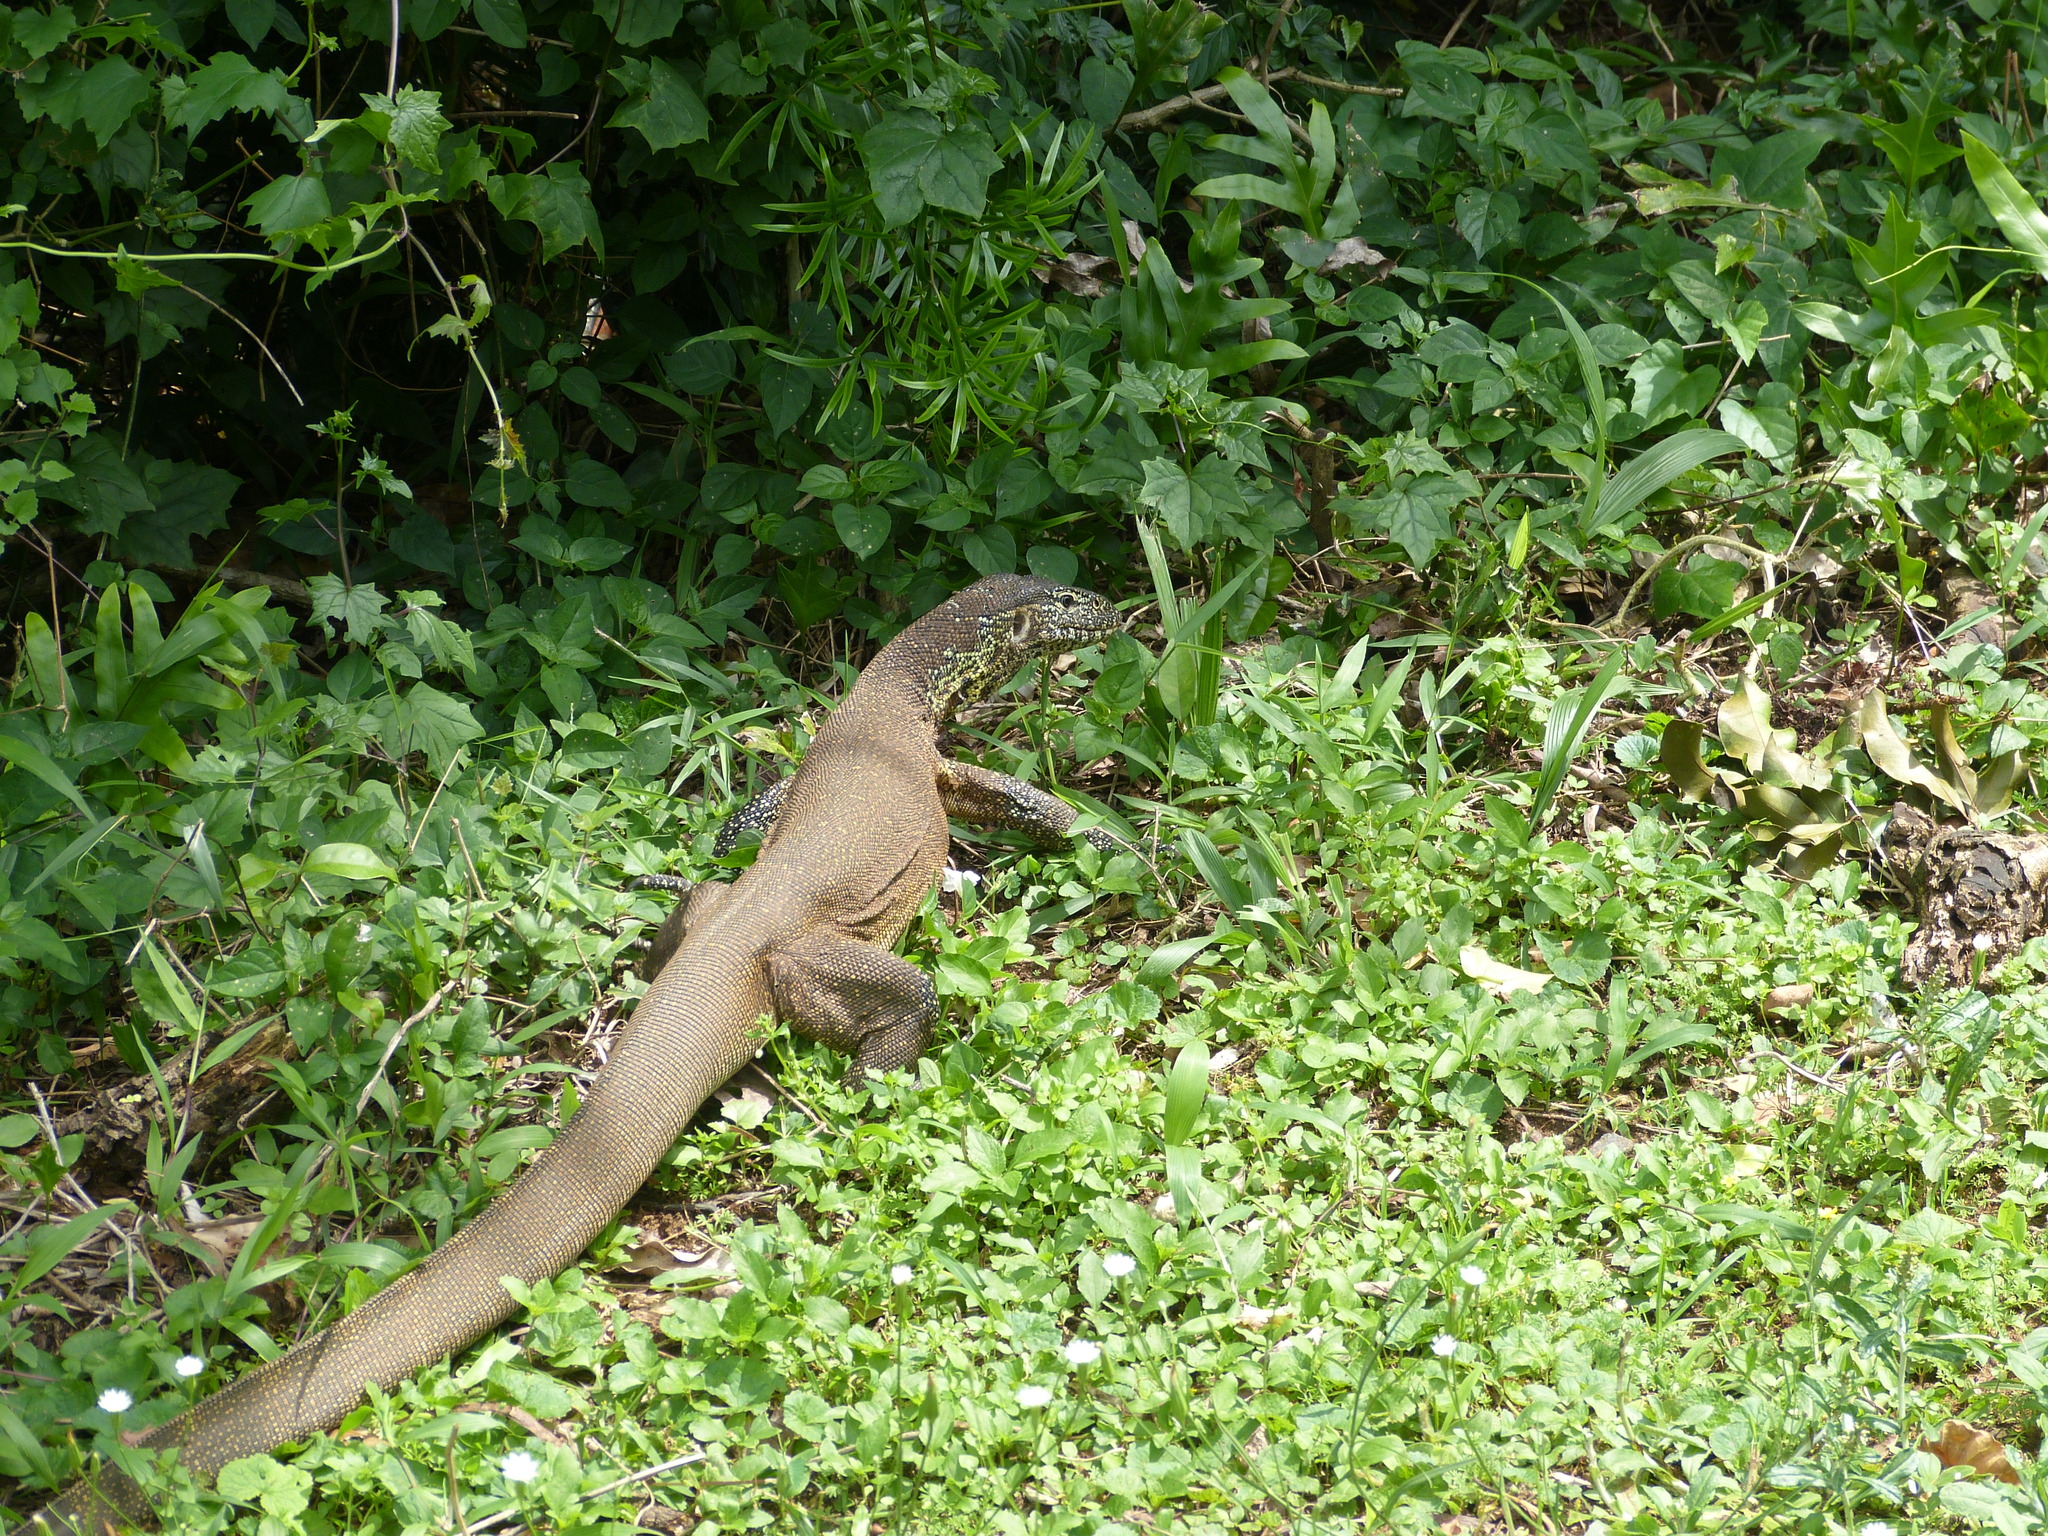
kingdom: Animalia
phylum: Chordata
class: Squamata
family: Varanidae
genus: Varanus
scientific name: Varanus niloticus
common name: Nile monitor
